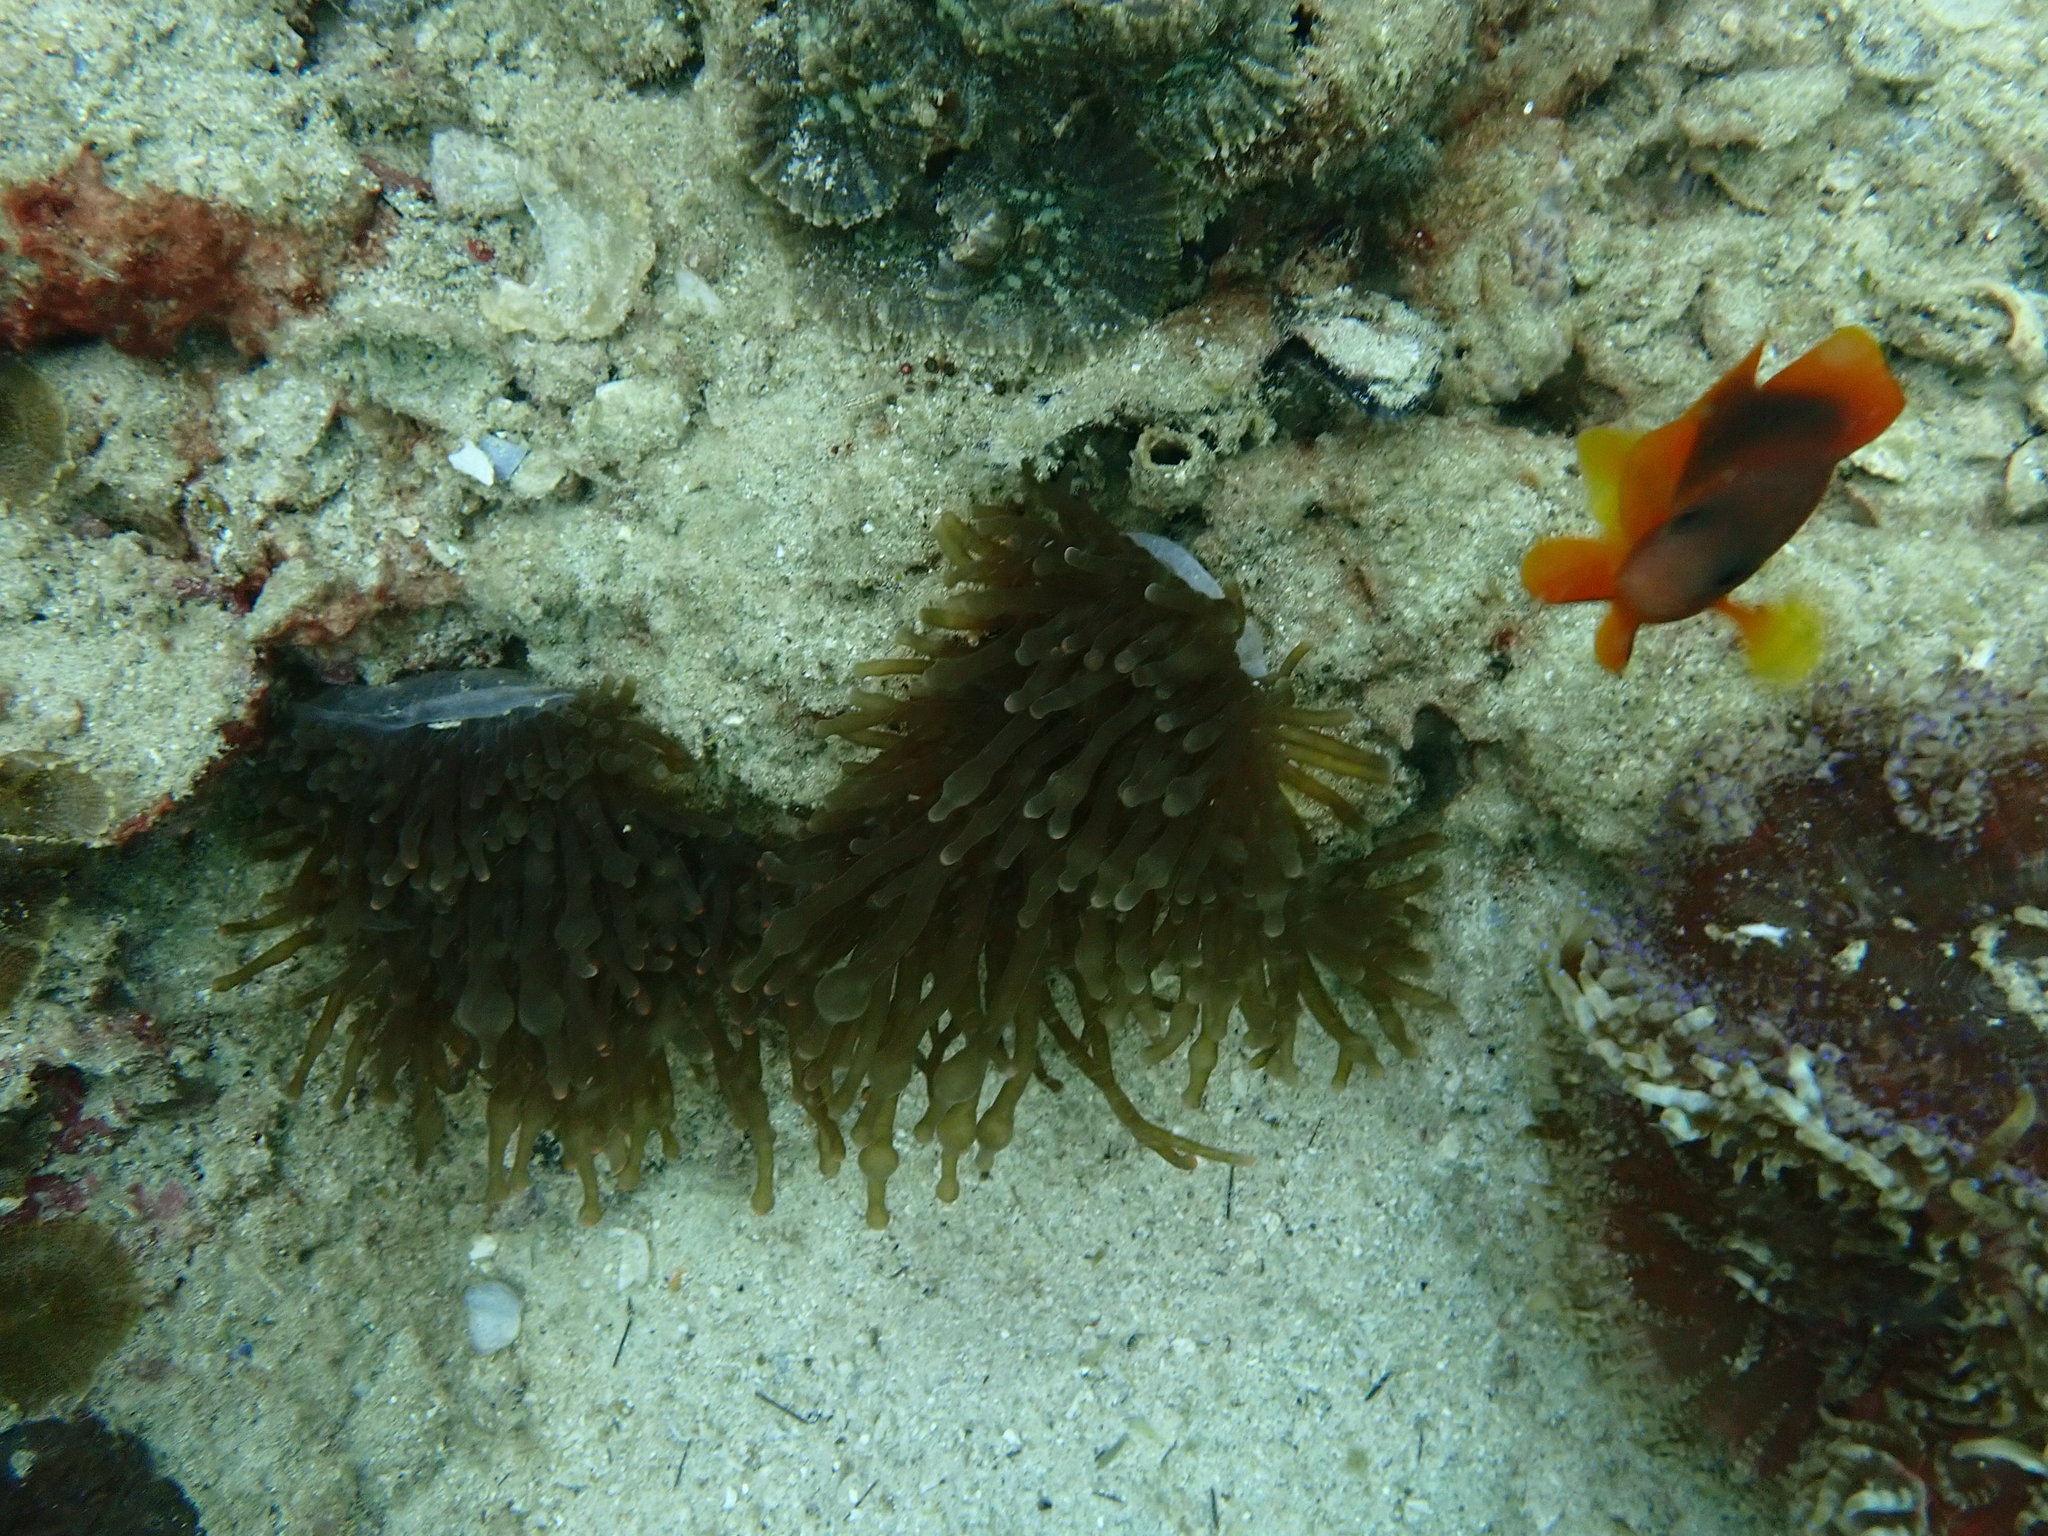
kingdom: Animalia
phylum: Cnidaria
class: Anthozoa
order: Actiniaria
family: Actiniidae
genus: Entacmaea
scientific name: Entacmaea quadricolor
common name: Bulb tentacle sea anemone
